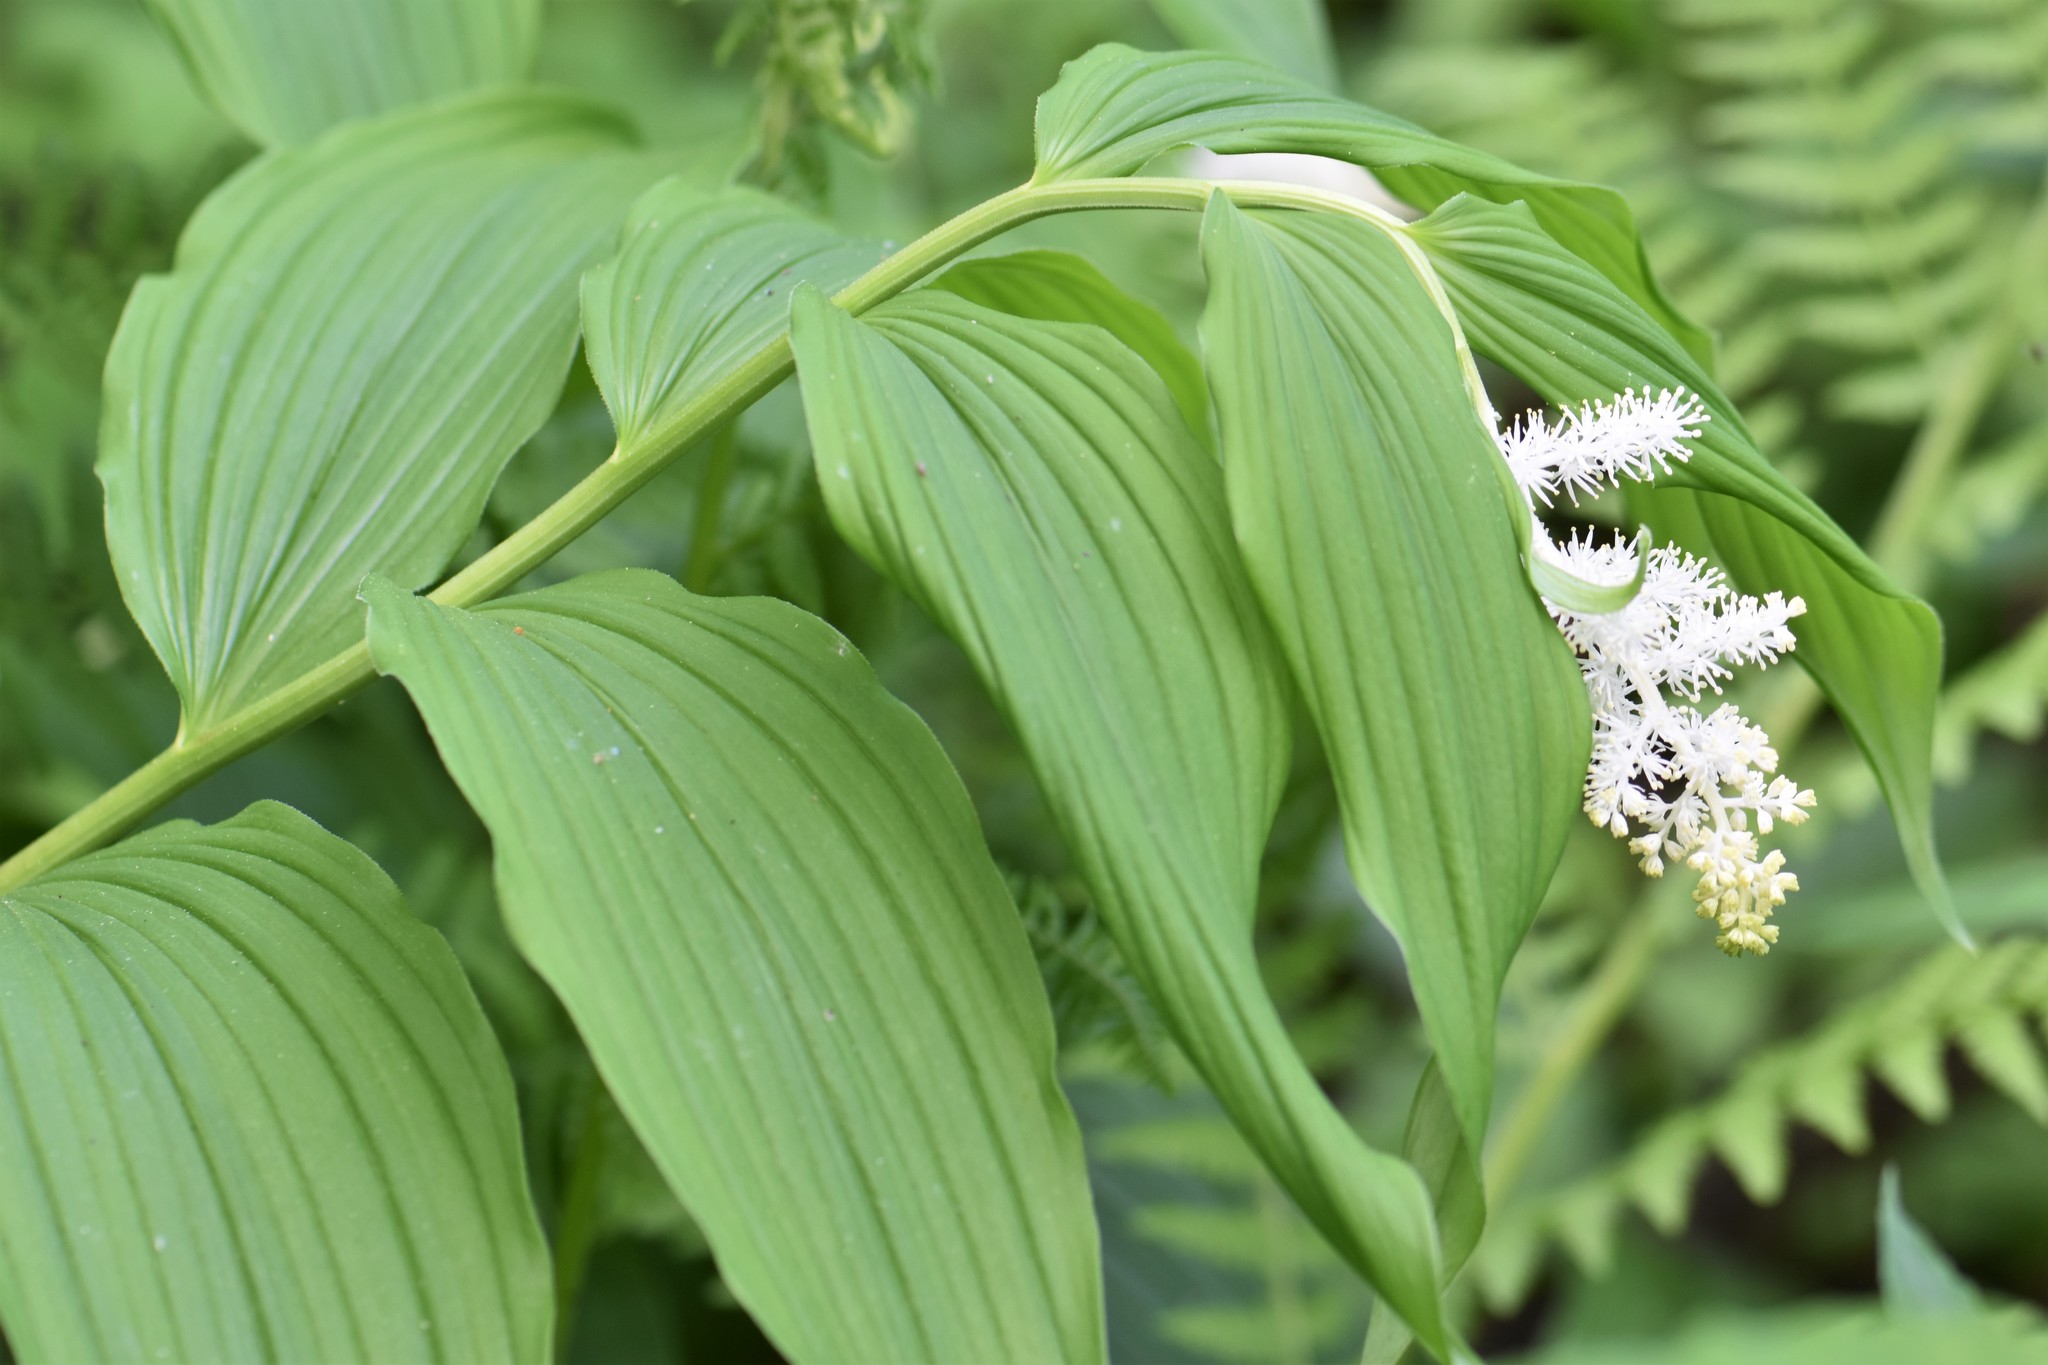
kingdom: Plantae
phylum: Tracheophyta
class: Liliopsida
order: Asparagales
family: Asparagaceae
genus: Maianthemum
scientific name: Maianthemum racemosum
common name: False spikenard
